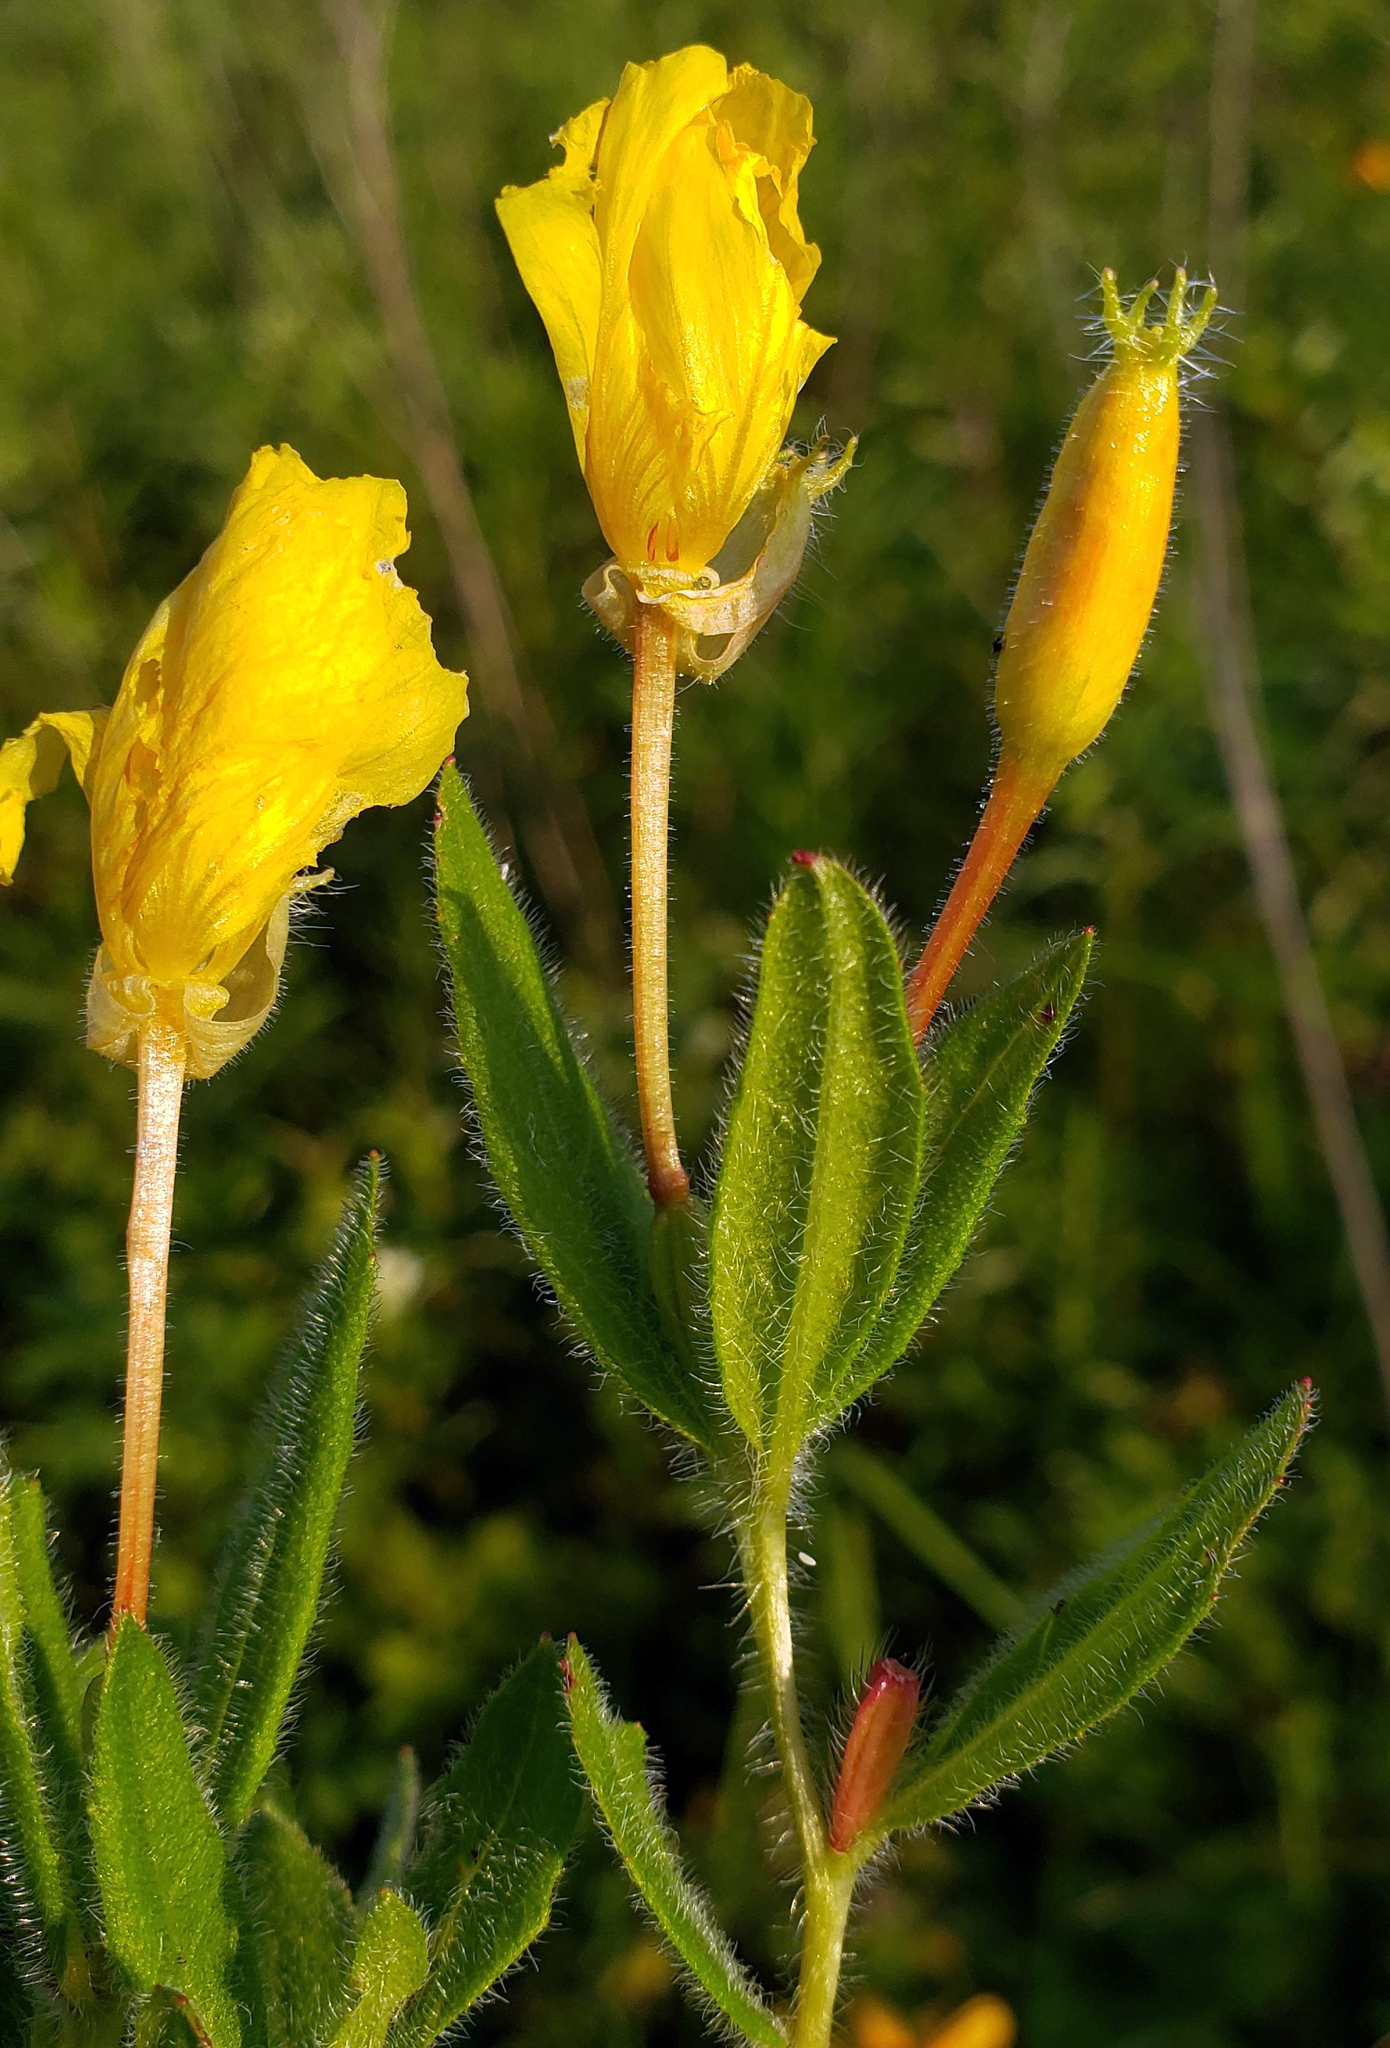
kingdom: Plantae
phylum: Tracheophyta
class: Magnoliopsida
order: Myrtales
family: Onagraceae
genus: Oenothera
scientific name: Oenothera pilosella
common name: Finely-pilose evening-primrose
